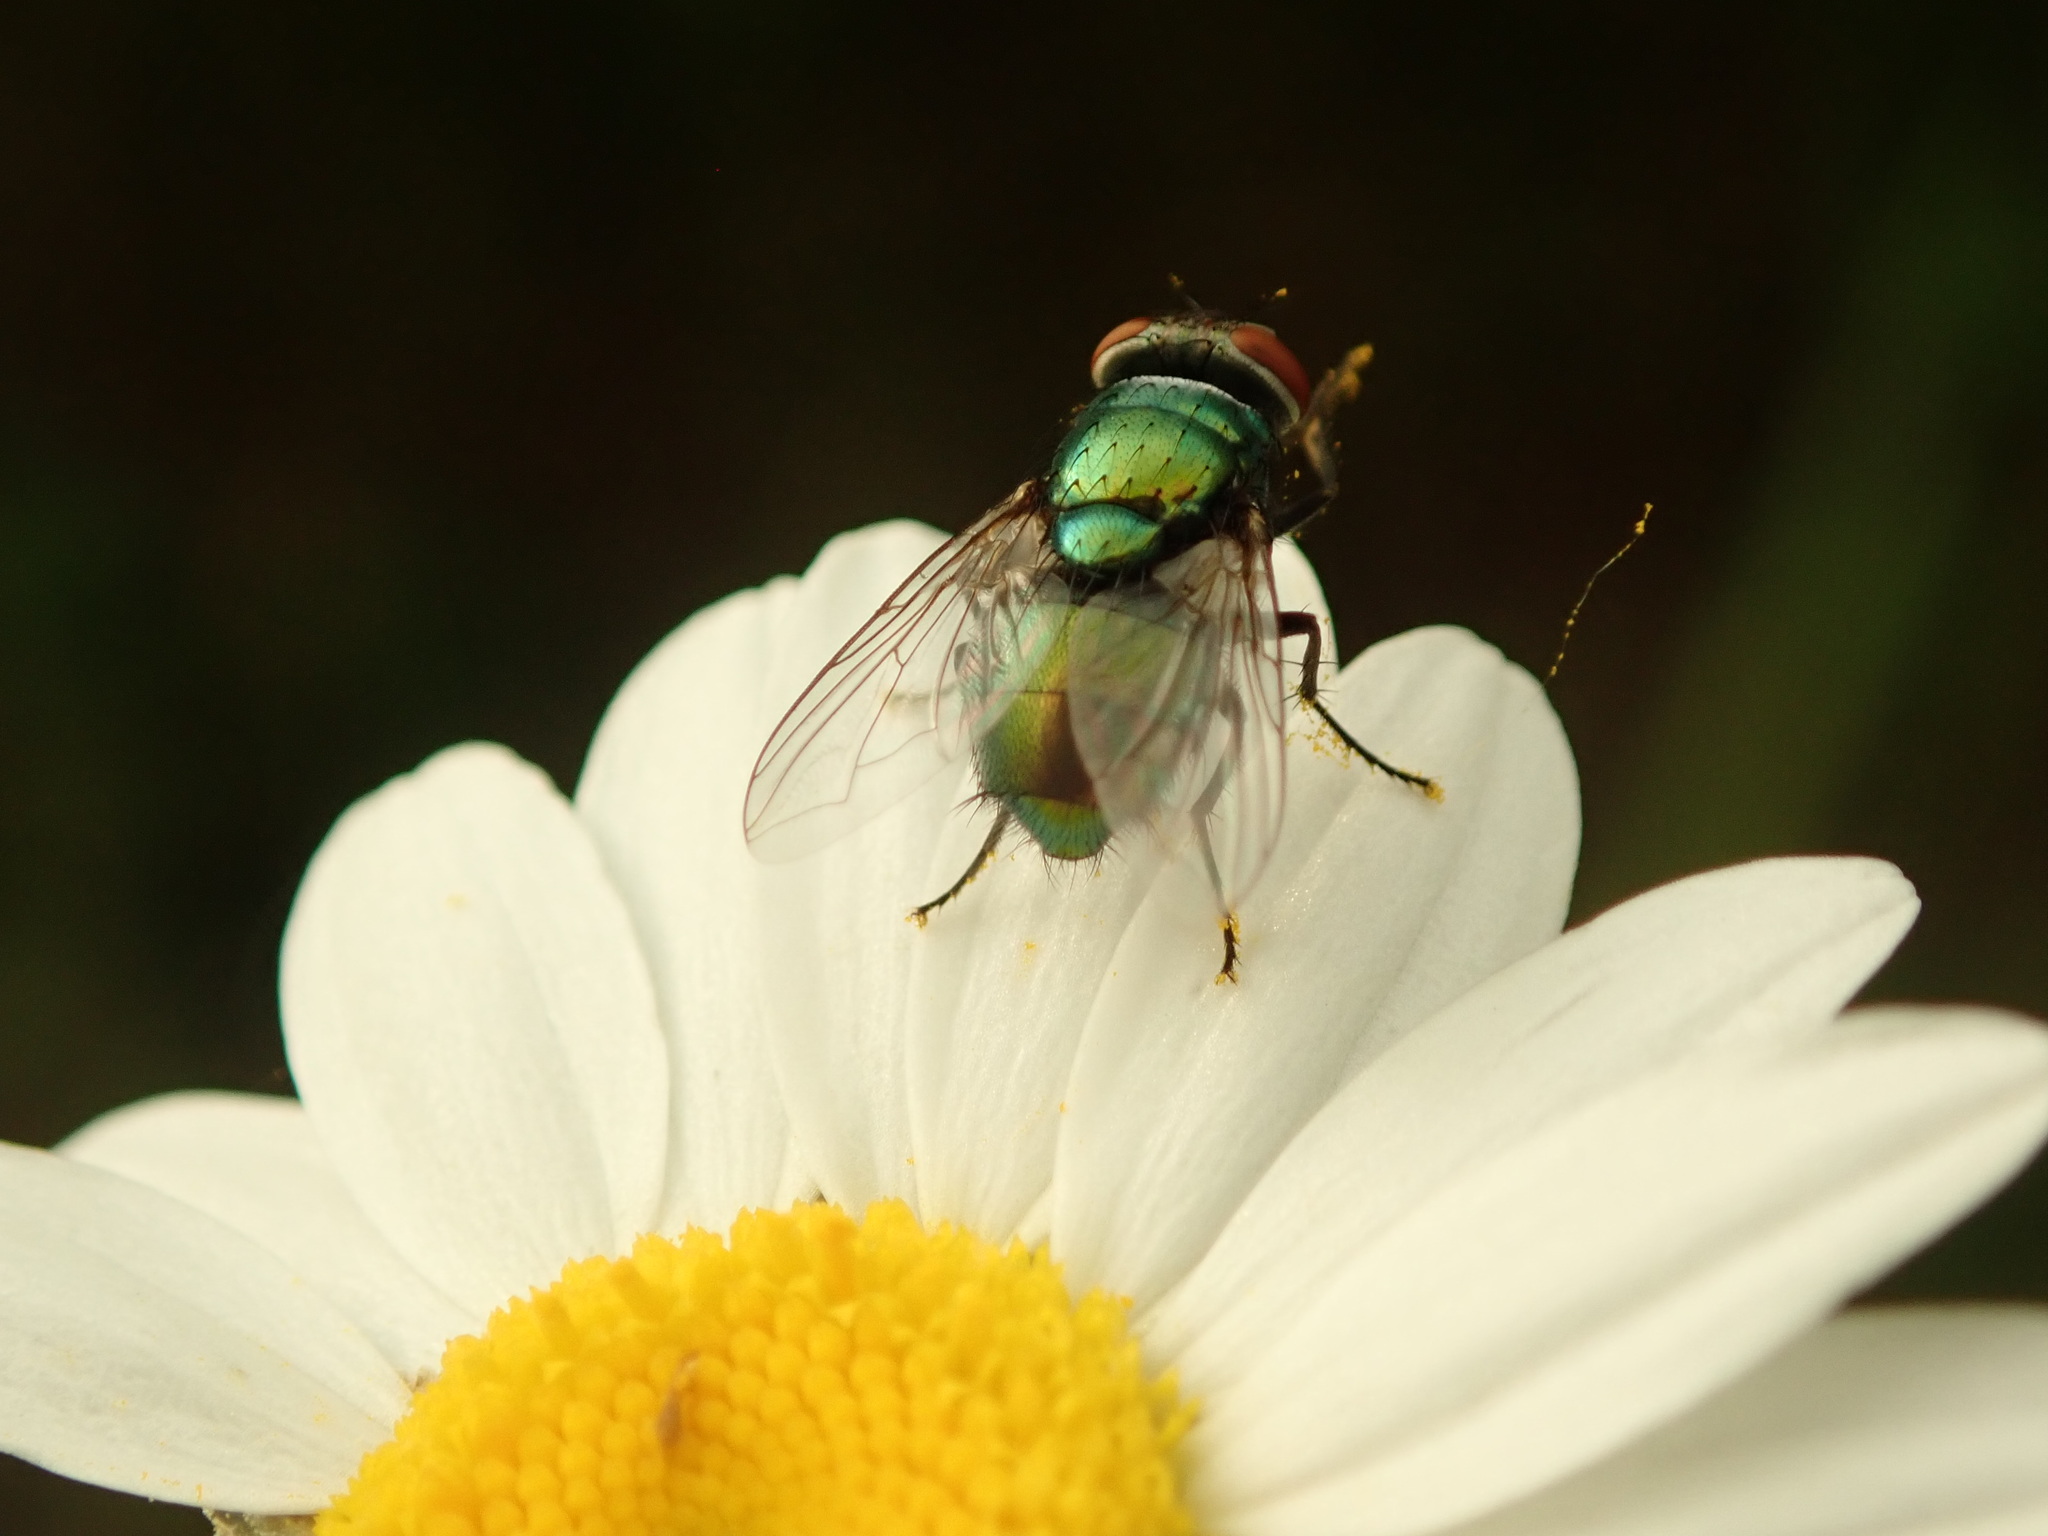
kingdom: Animalia
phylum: Arthropoda
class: Insecta
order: Diptera
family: Calliphoridae
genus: Lucilia
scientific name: Lucilia sericata
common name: Blow fly
